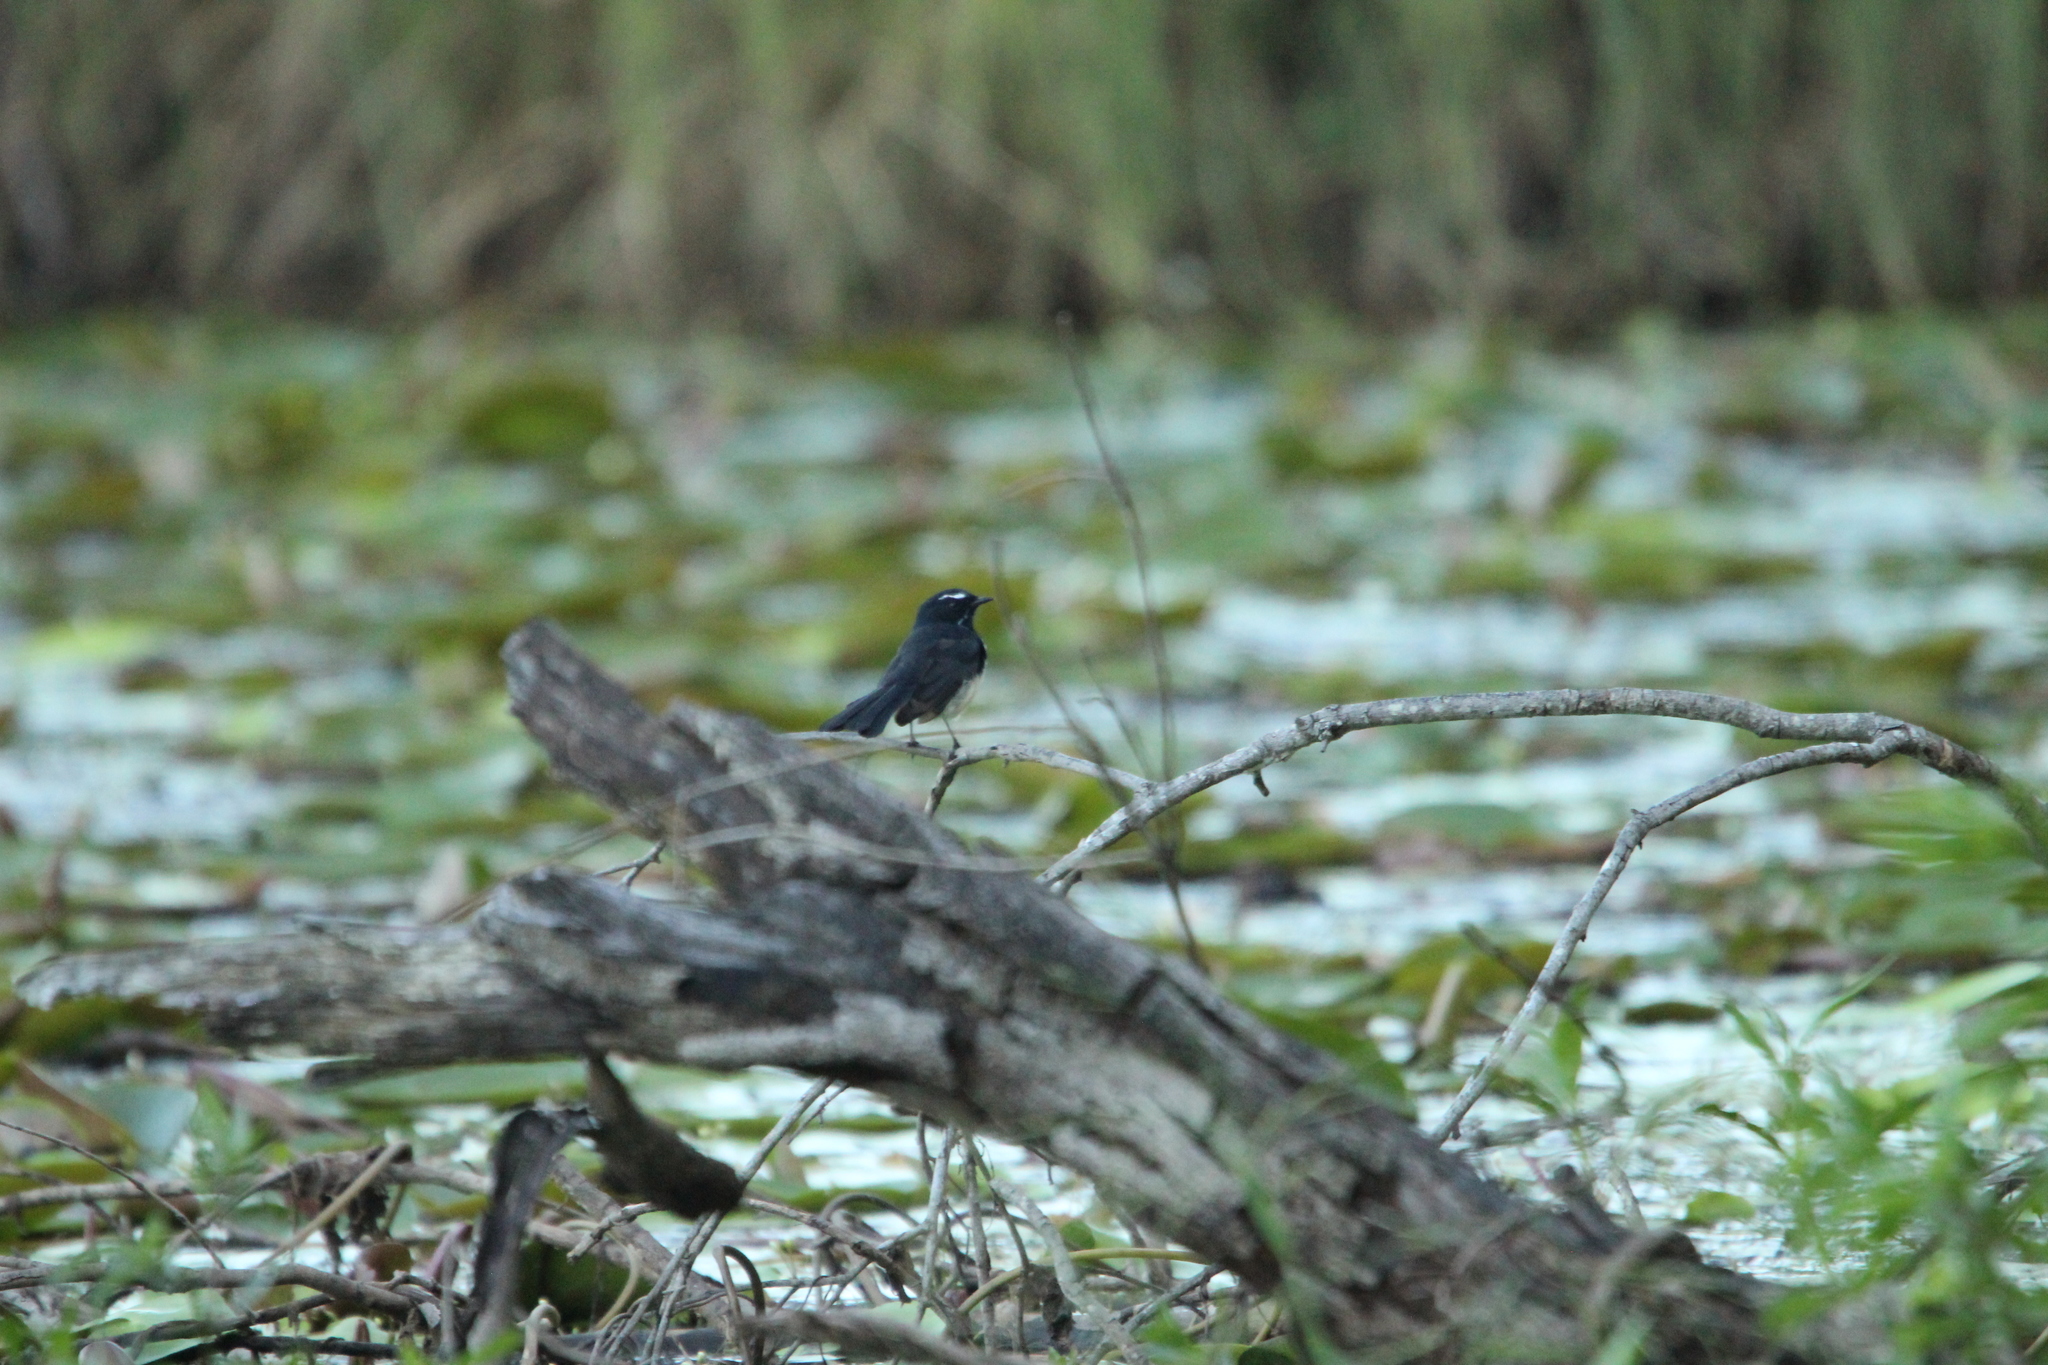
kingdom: Animalia
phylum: Chordata
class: Aves
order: Passeriformes
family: Rhipiduridae
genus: Rhipidura
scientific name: Rhipidura leucophrys
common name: Willie wagtail
